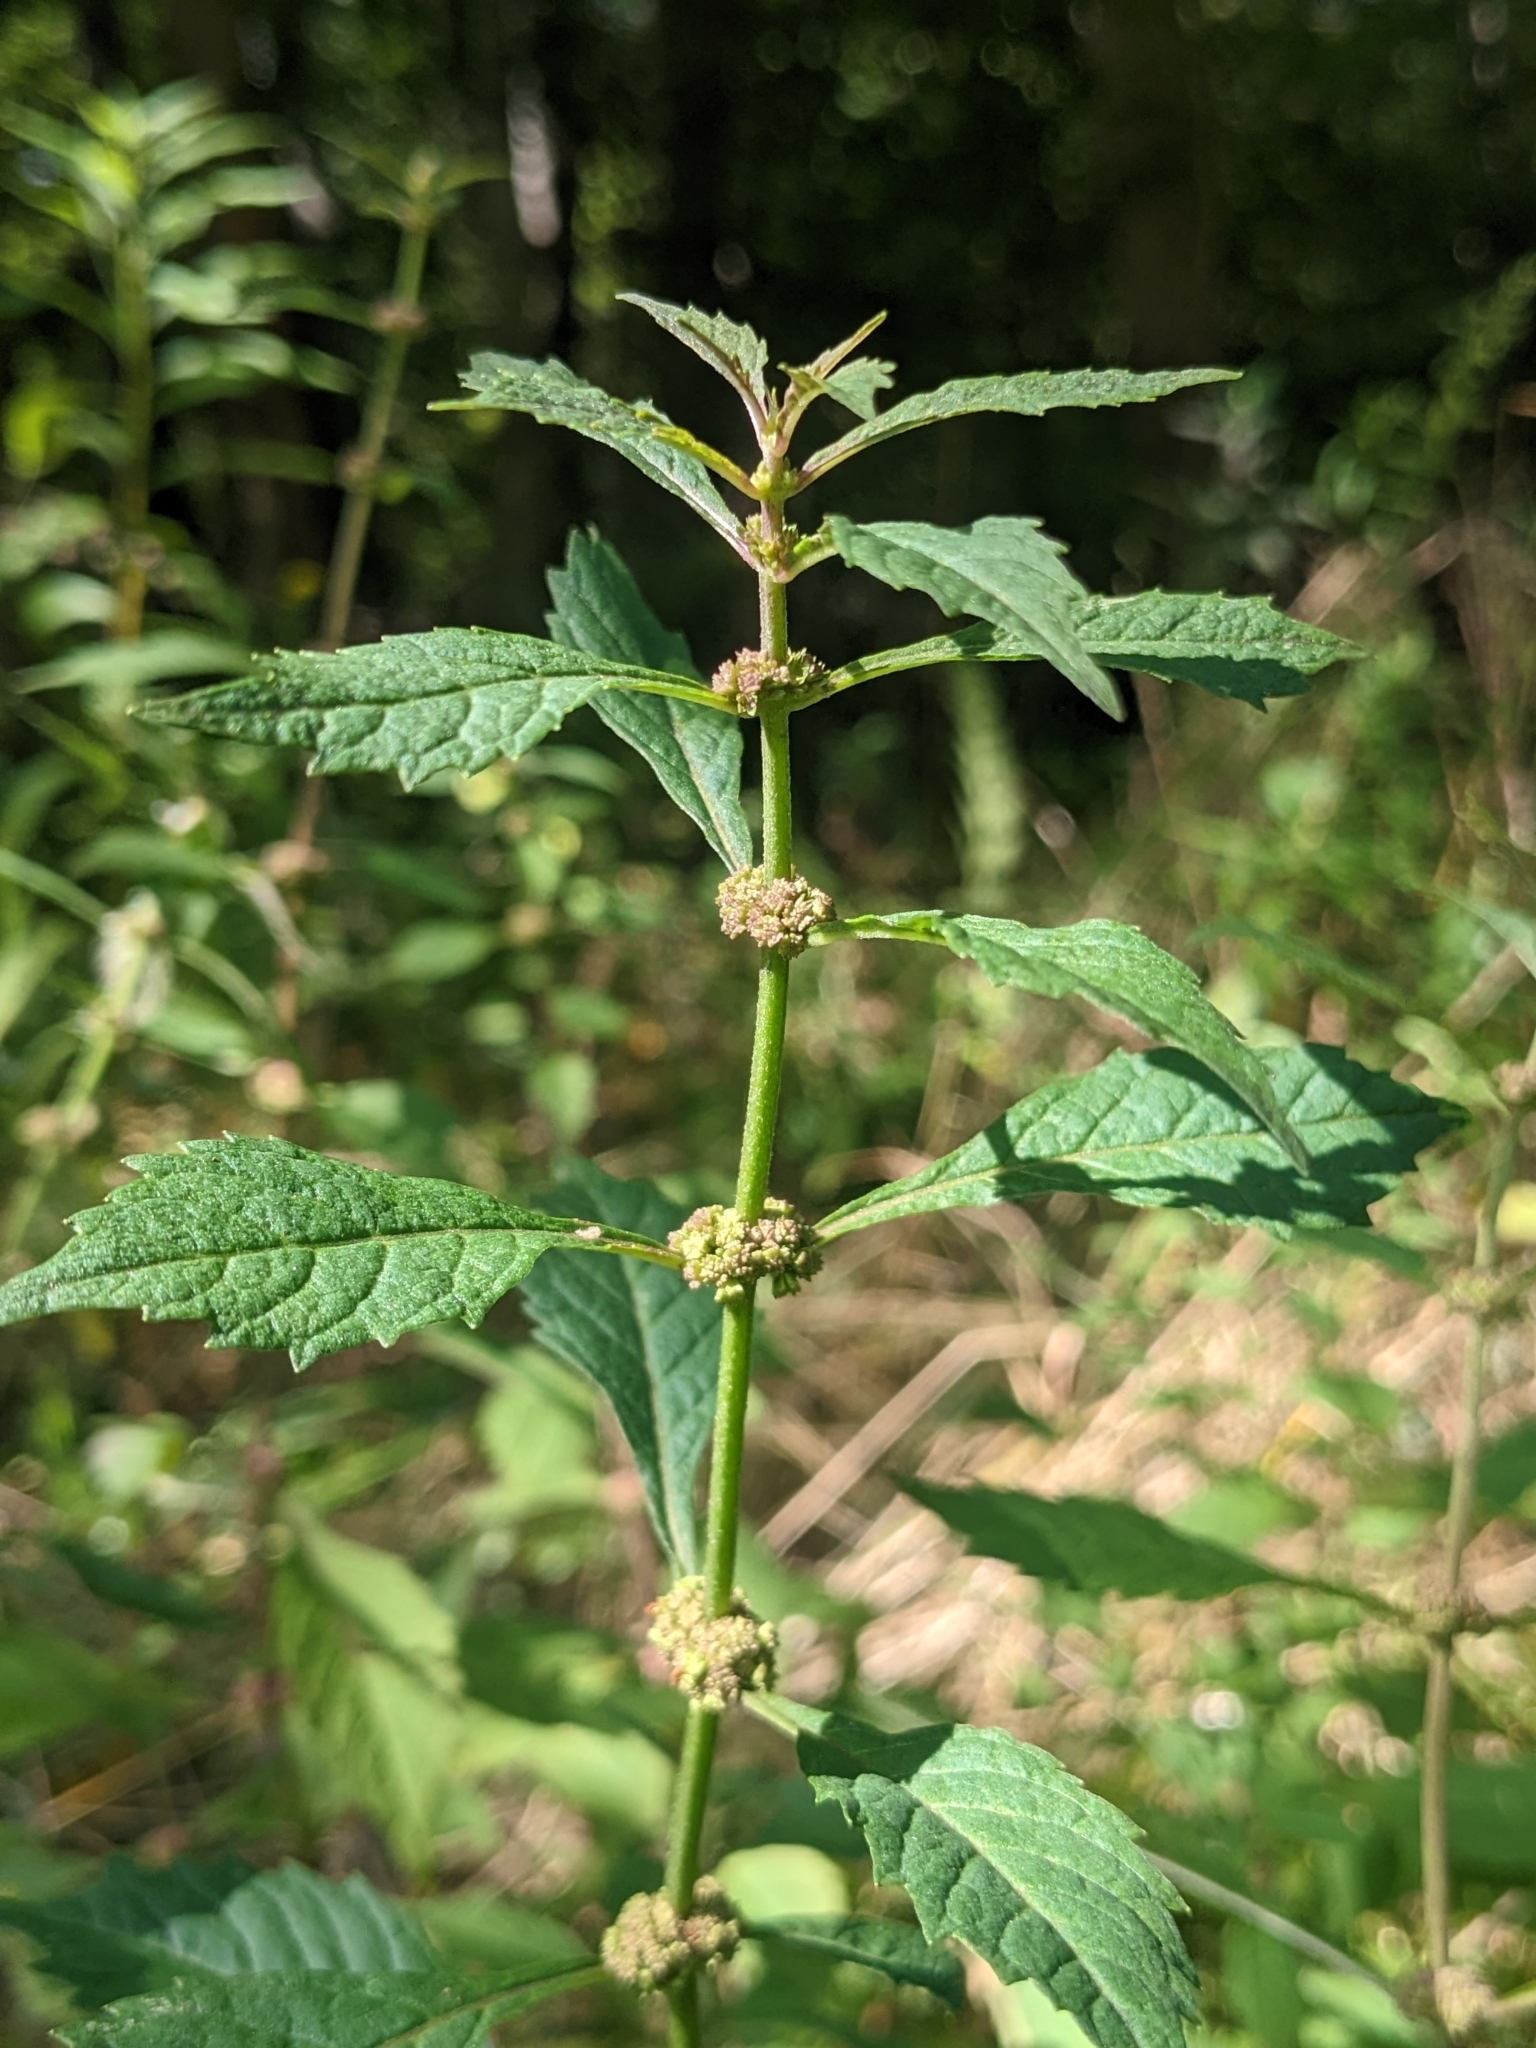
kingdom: Plantae
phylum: Tracheophyta
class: Magnoliopsida
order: Lamiales
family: Lamiaceae
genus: Lycopus
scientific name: Lycopus uniflorus
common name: Northern bugleweed
